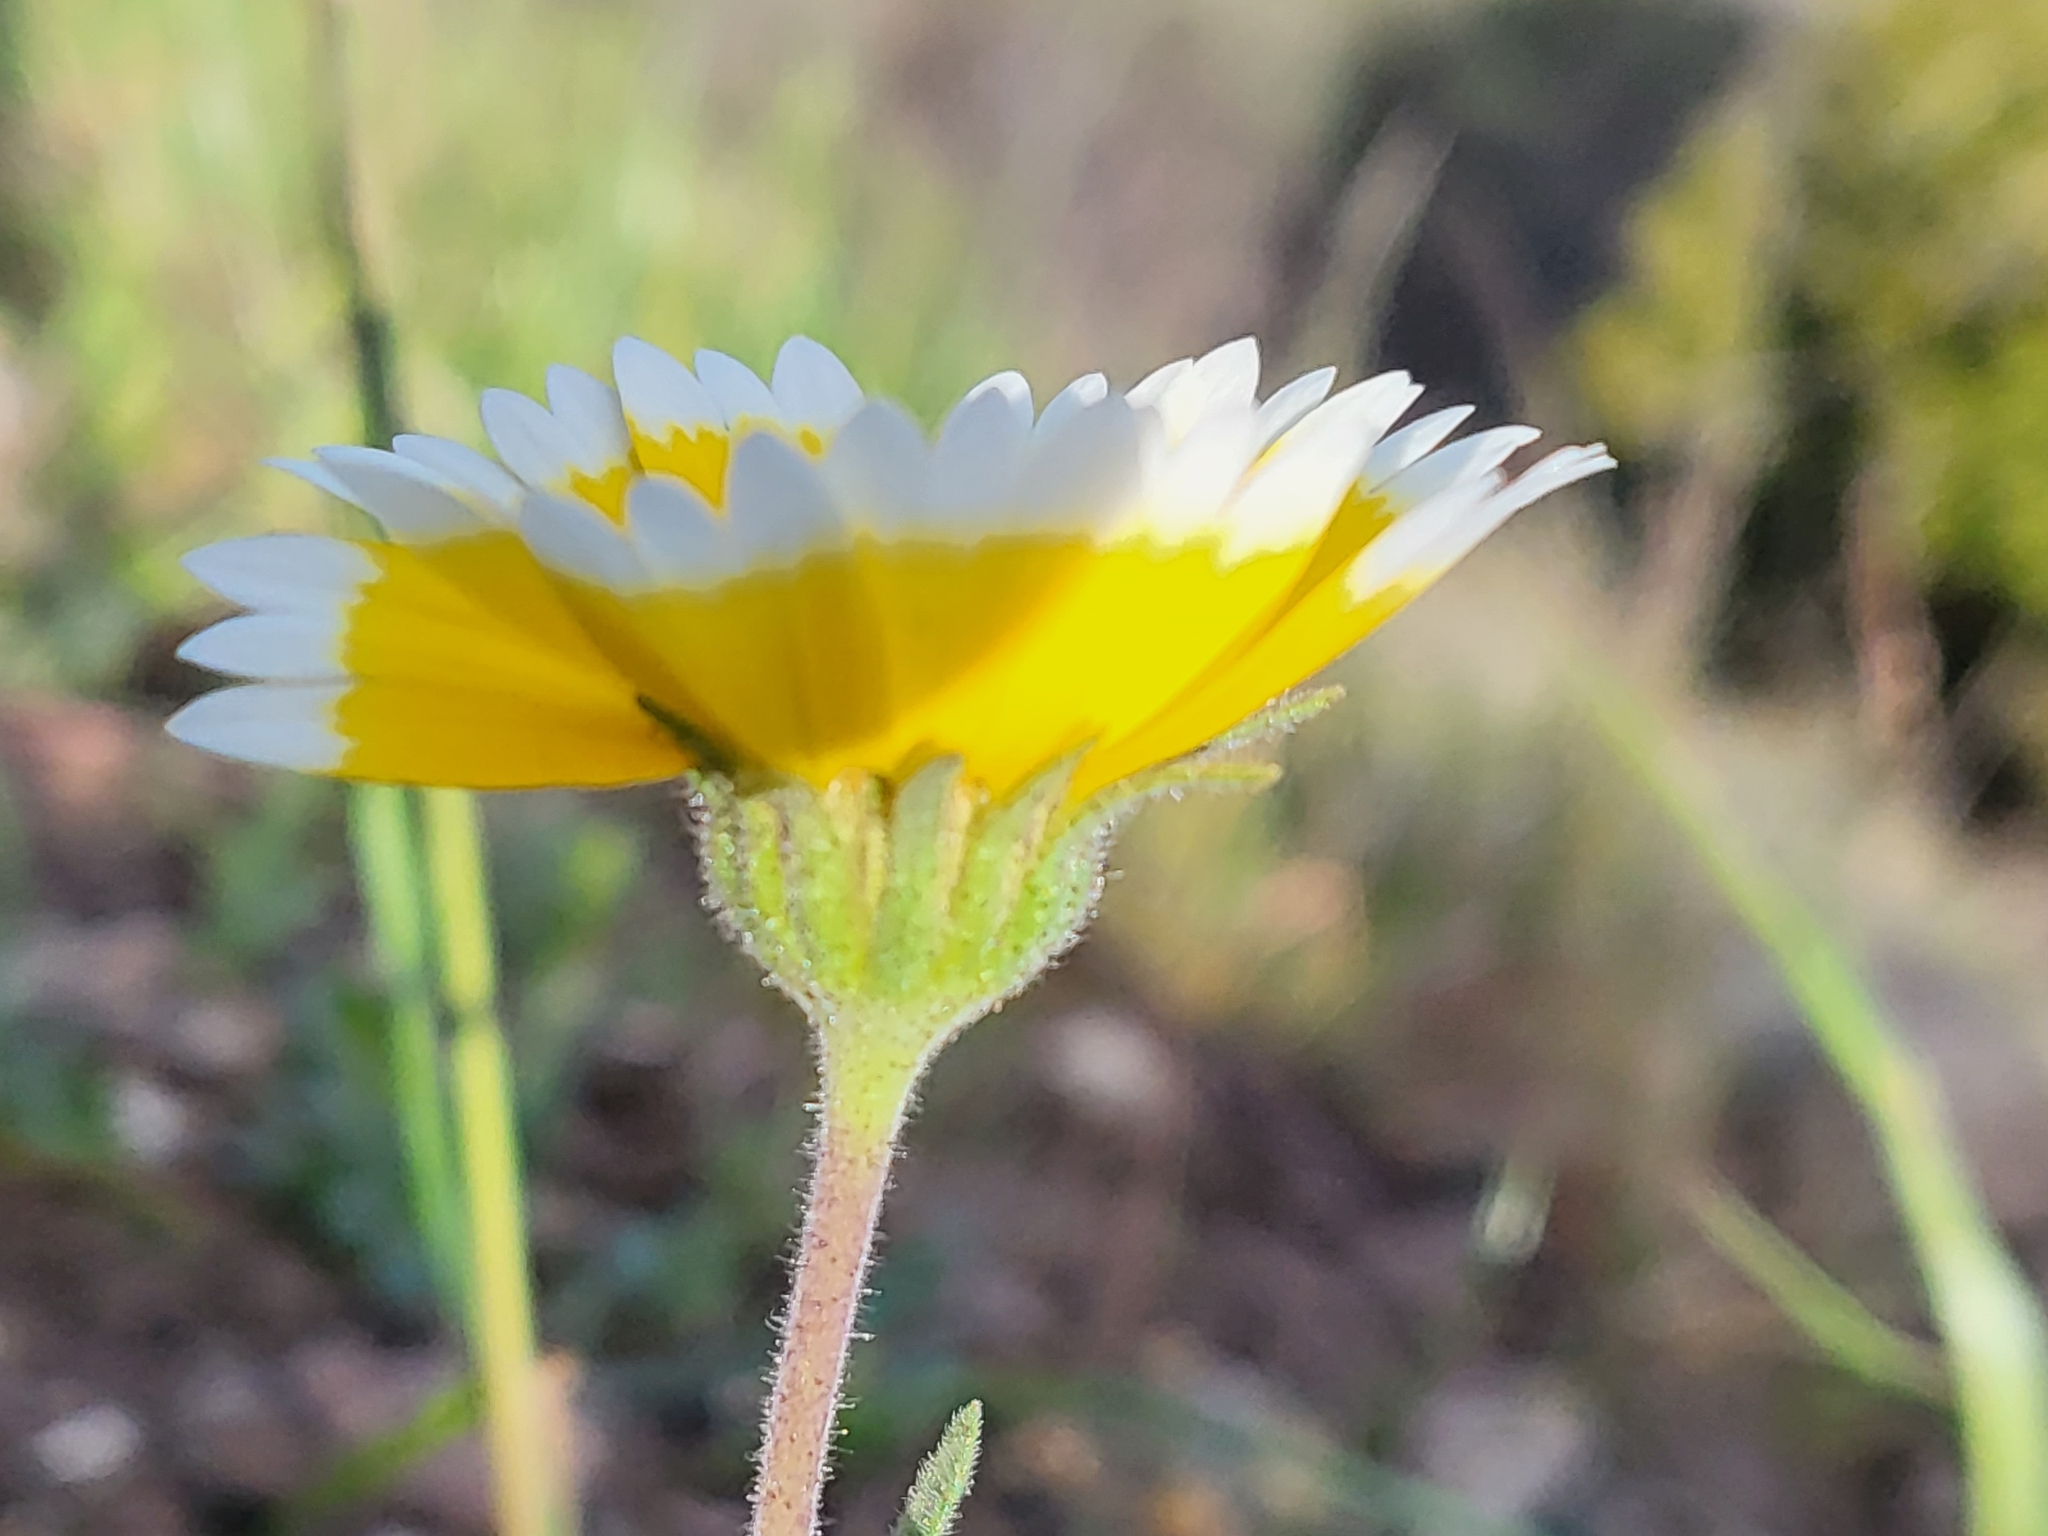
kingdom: Plantae
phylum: Tracheophyta
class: Magnoliopsida
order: Asterales
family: Asteraceae
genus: Layia
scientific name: Layia platyglossa
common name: Tidy-tips
